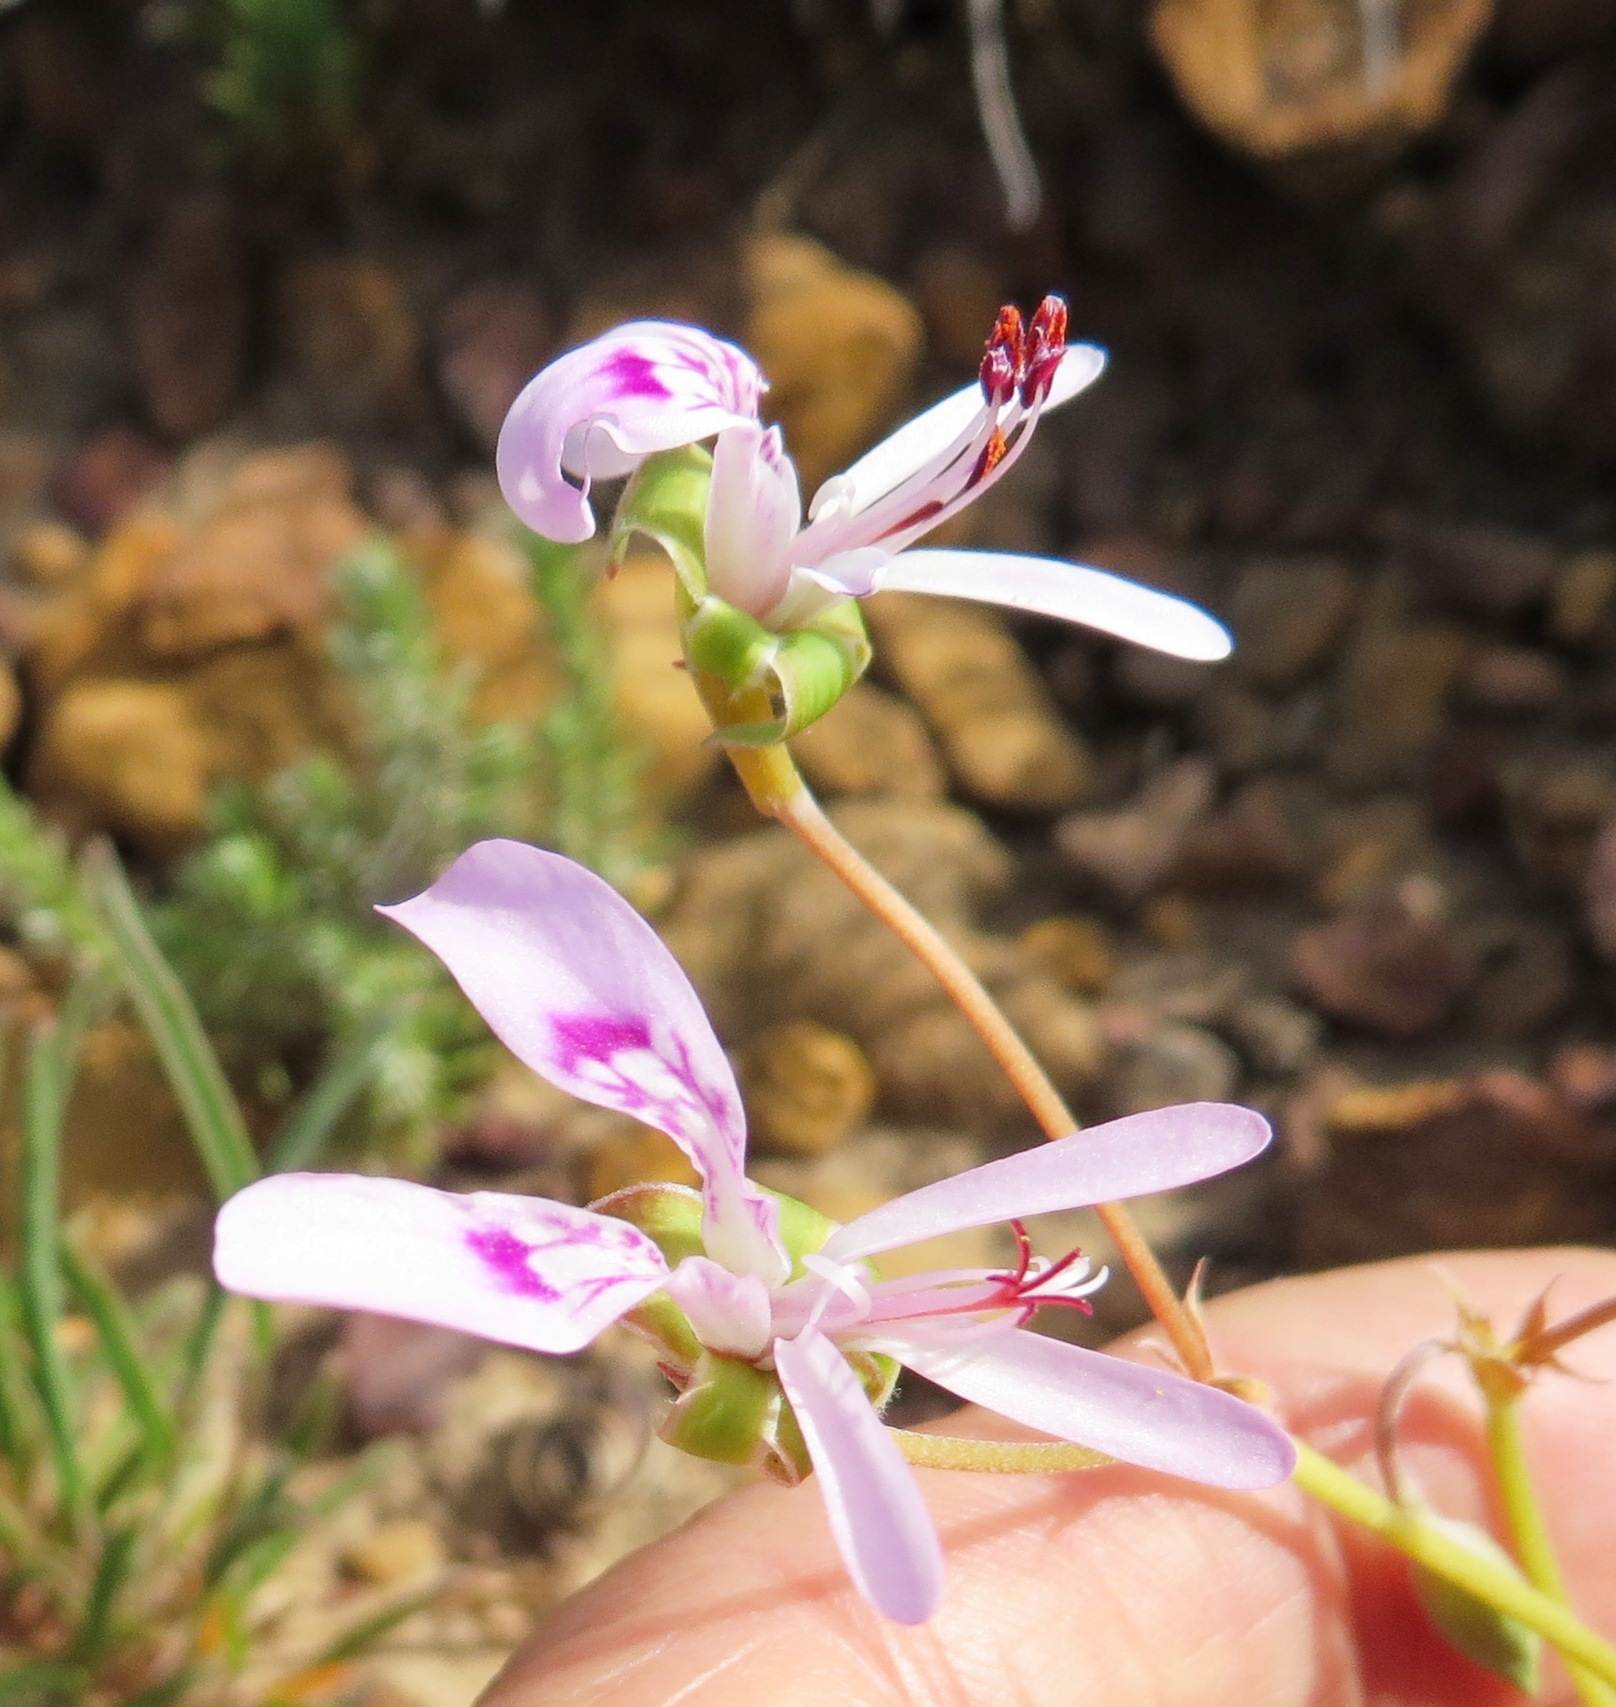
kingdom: Plantae
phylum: Tracheophyta
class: Magnoliopsida
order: Geraniales
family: Geraniaceae
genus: Pelargonium
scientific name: Pelargonium coronopifolium
